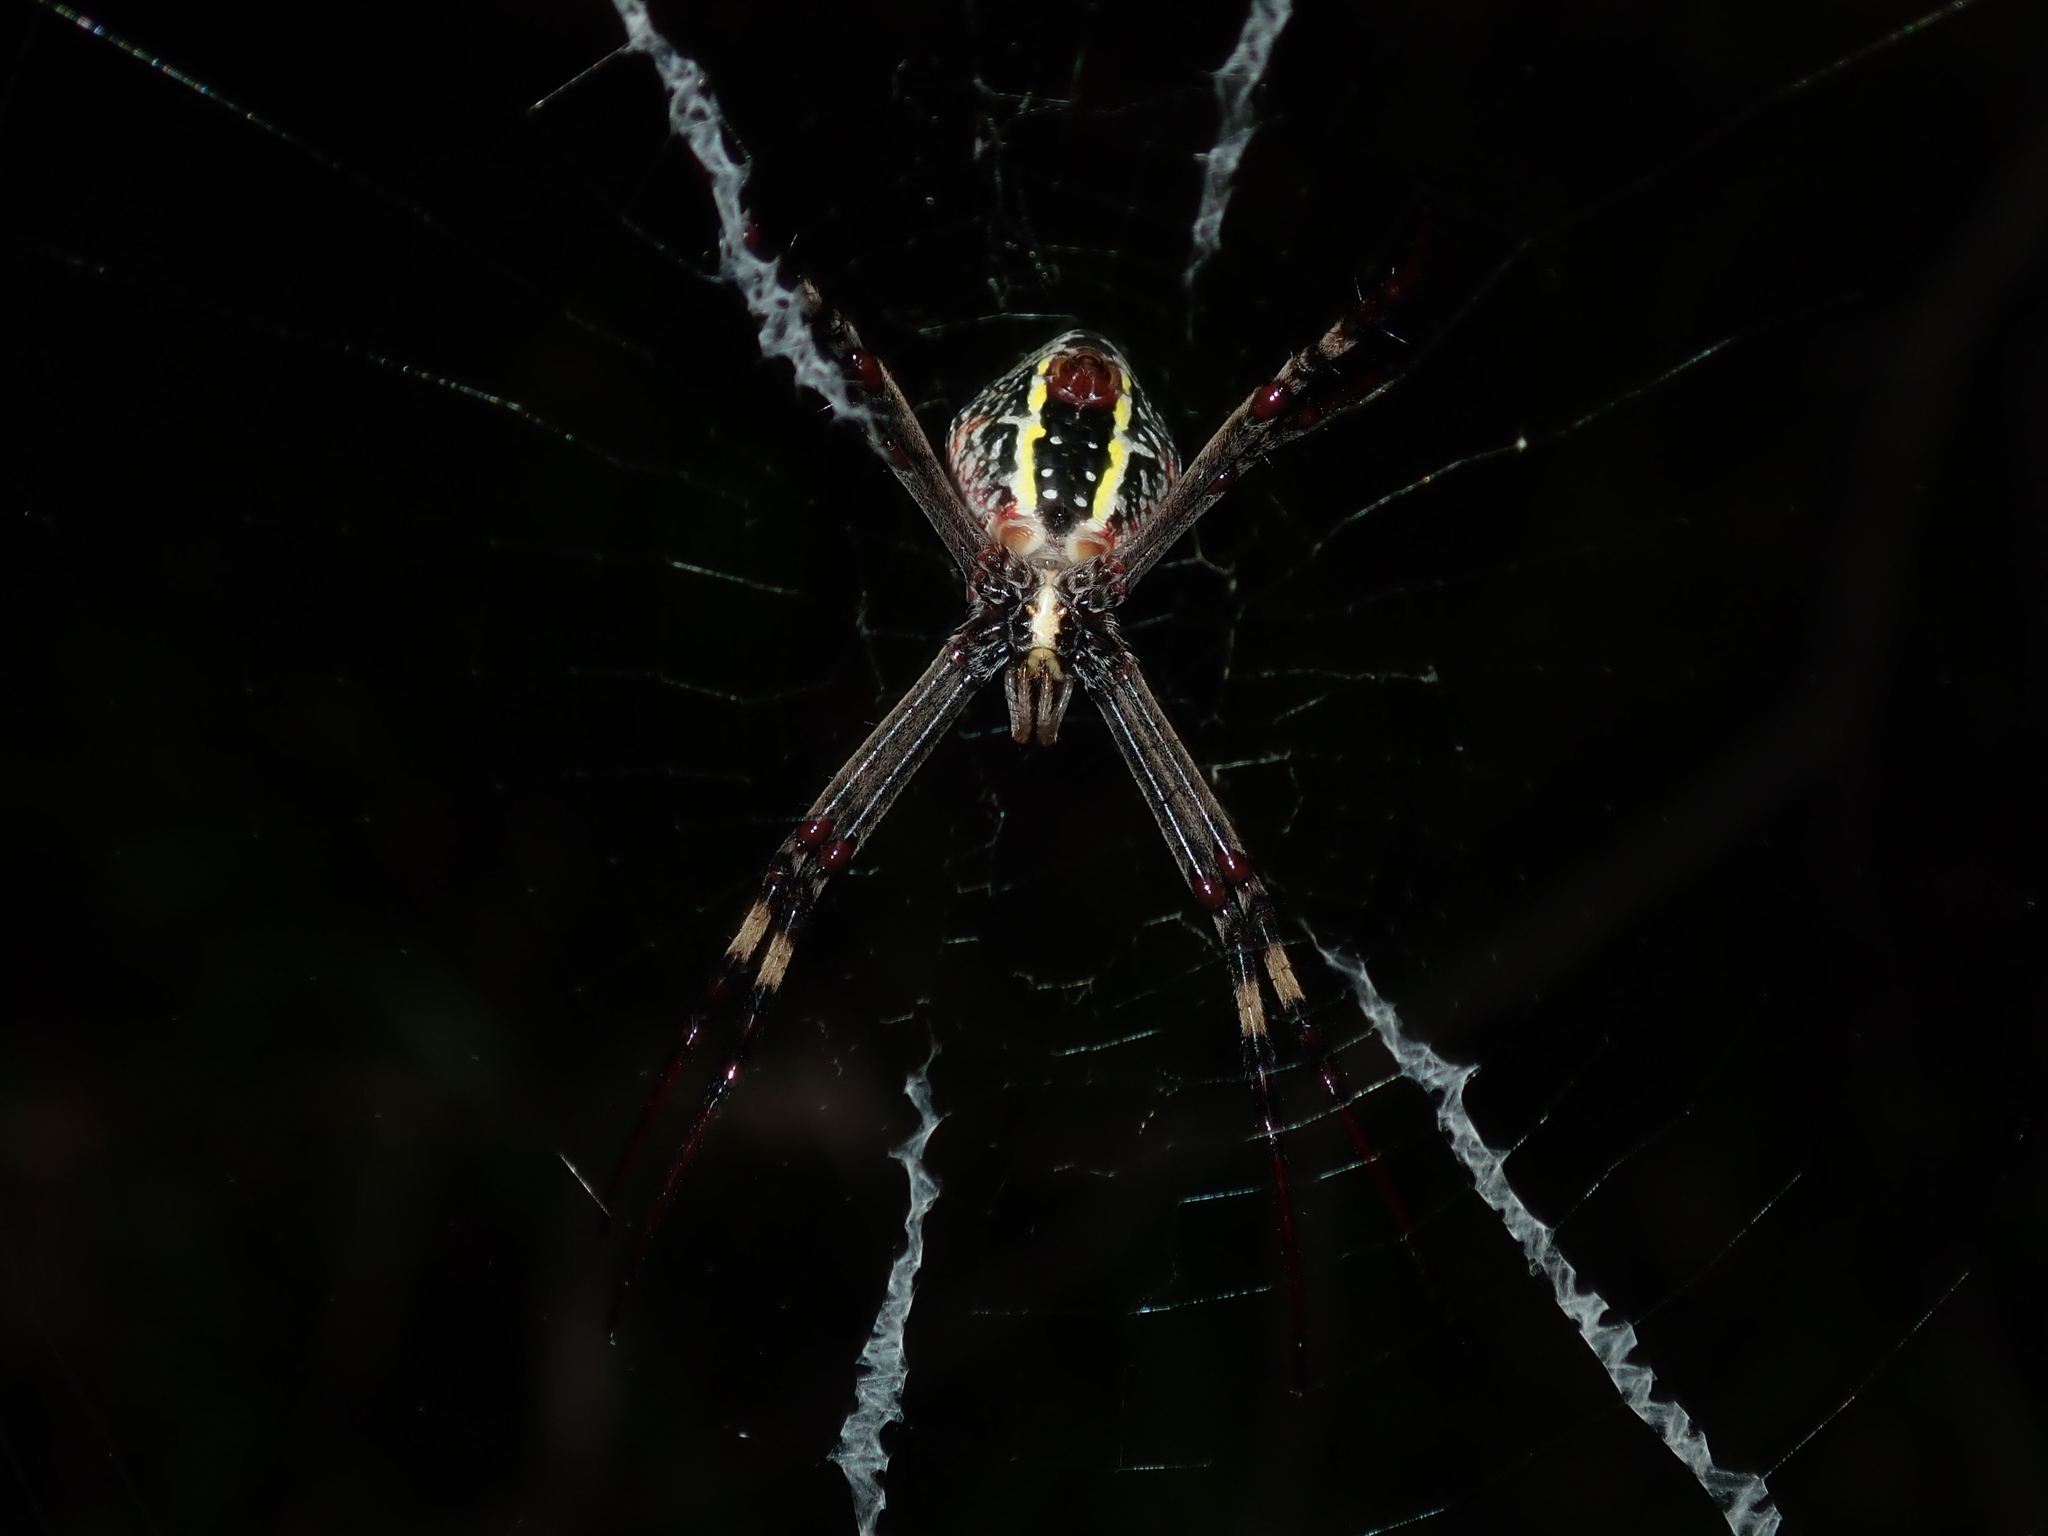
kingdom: Animalia
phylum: Arthropoda
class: Arachnida
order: Araneae
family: Araneidae
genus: Argiope
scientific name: Argiope keyserlingi
